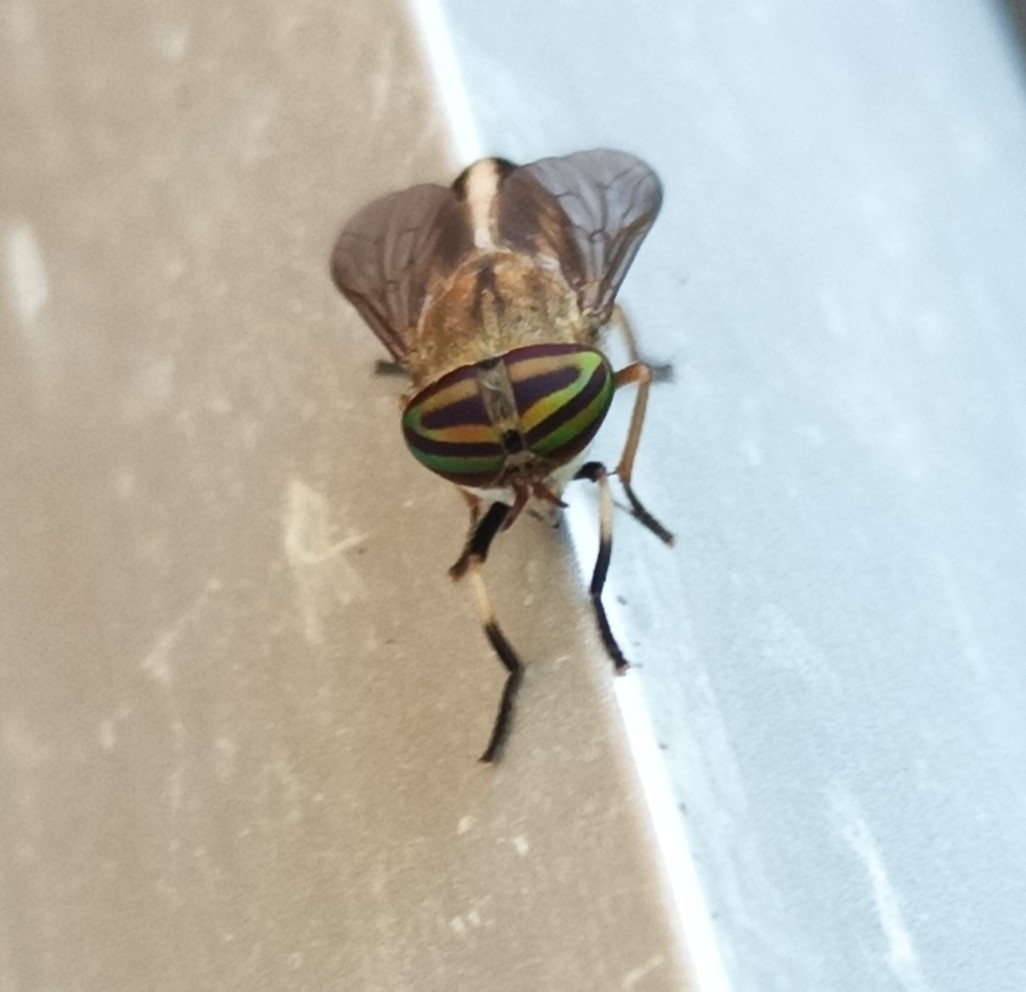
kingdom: Animalia
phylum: Arthropoda
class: Insecta
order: Diptera
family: Tabanidae
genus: Tabanus
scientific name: Tabanus lineola
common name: Striped horse fly
